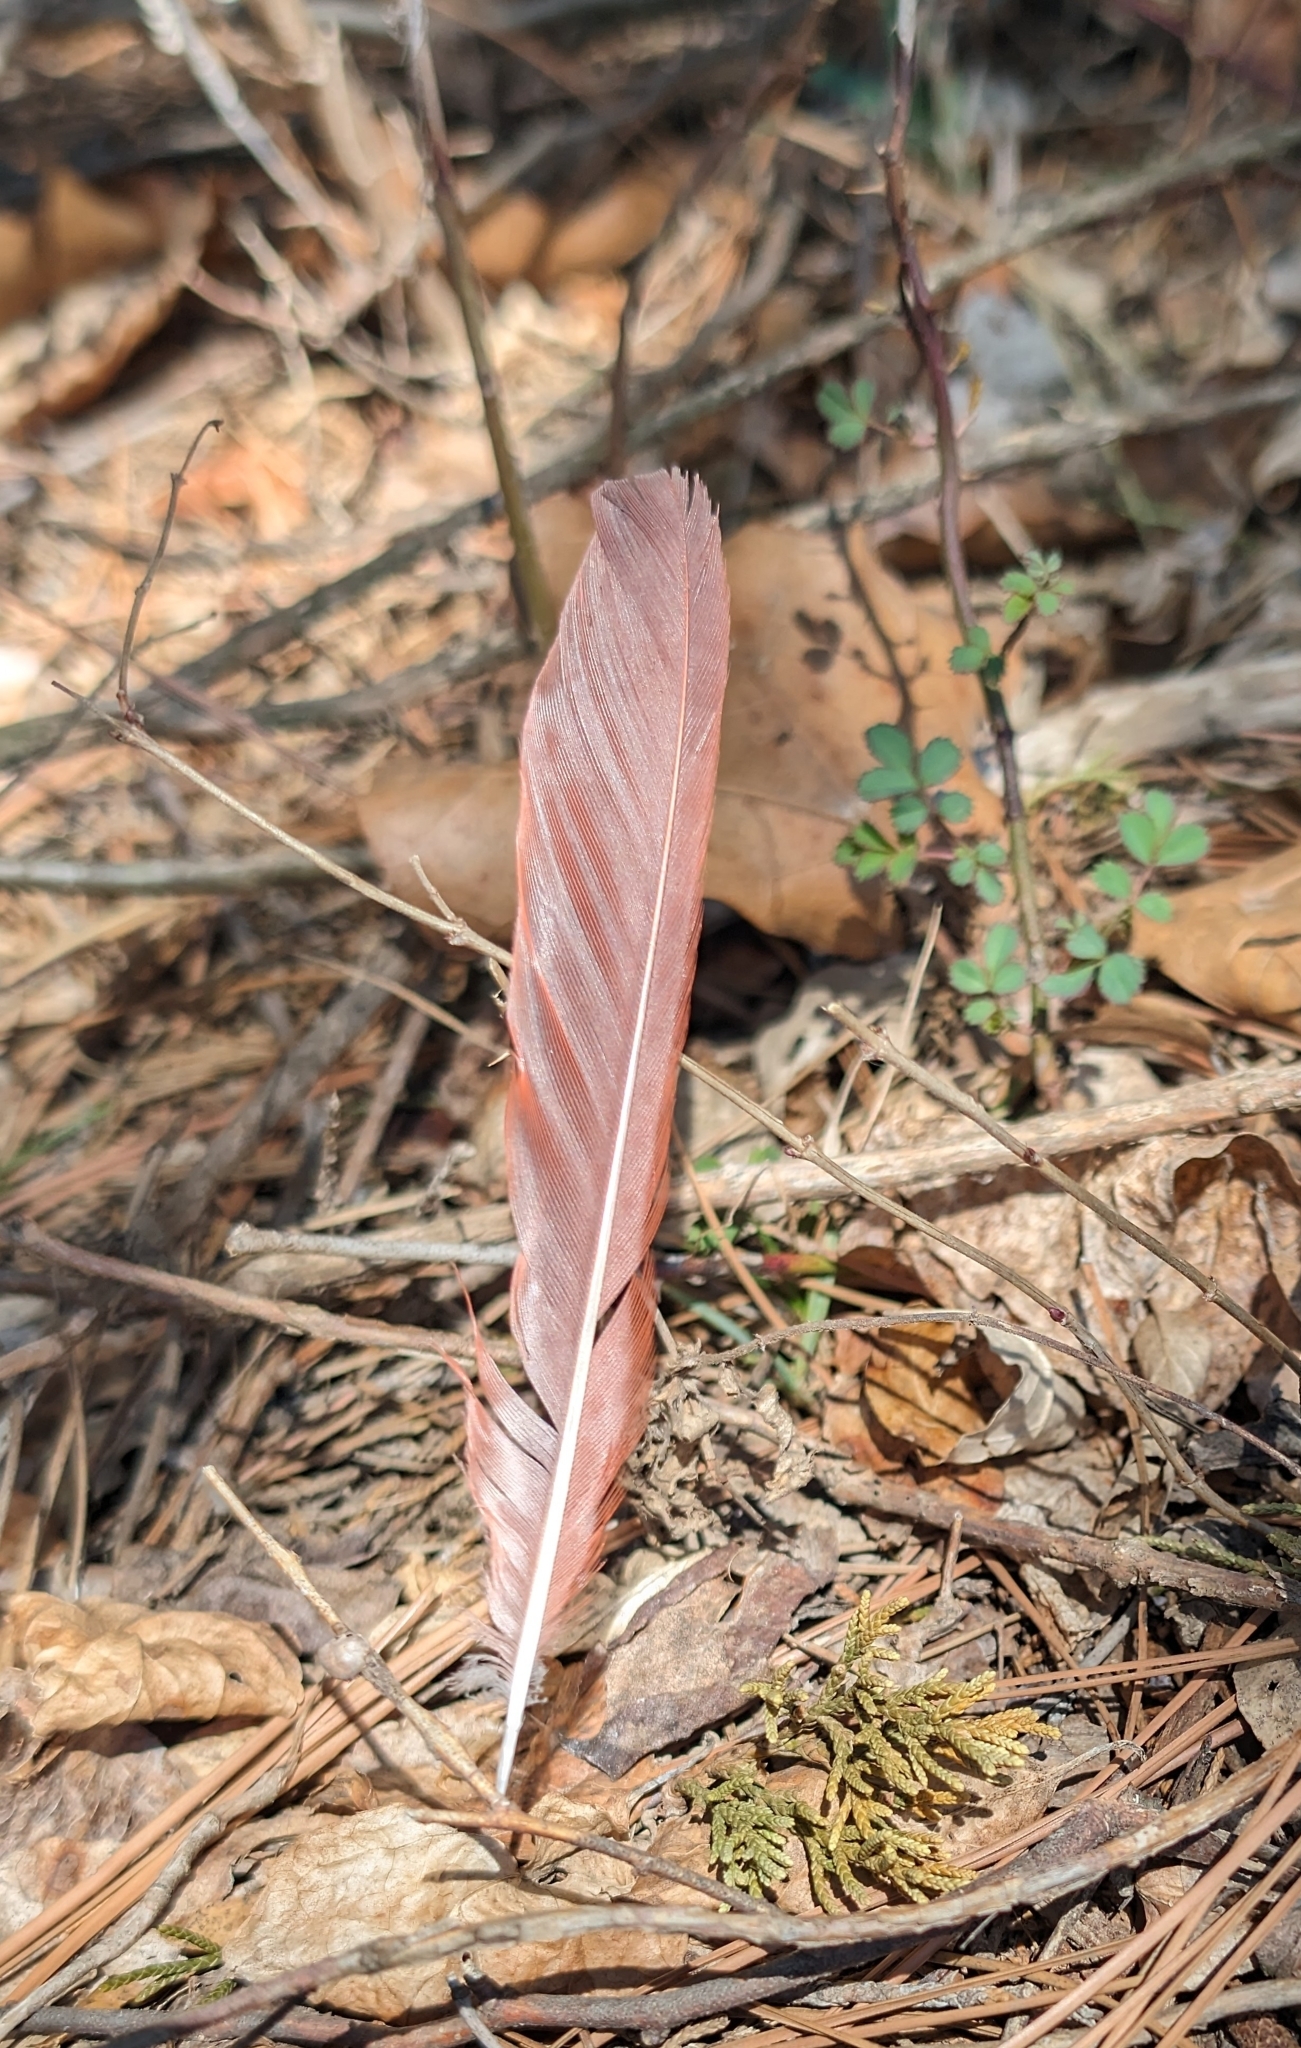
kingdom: Animalia
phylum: Chordata
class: Aves
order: Passeriformes
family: Cardinalidae
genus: Cardinalis
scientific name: Cardinalis cardinalis
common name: Northern cardinal
